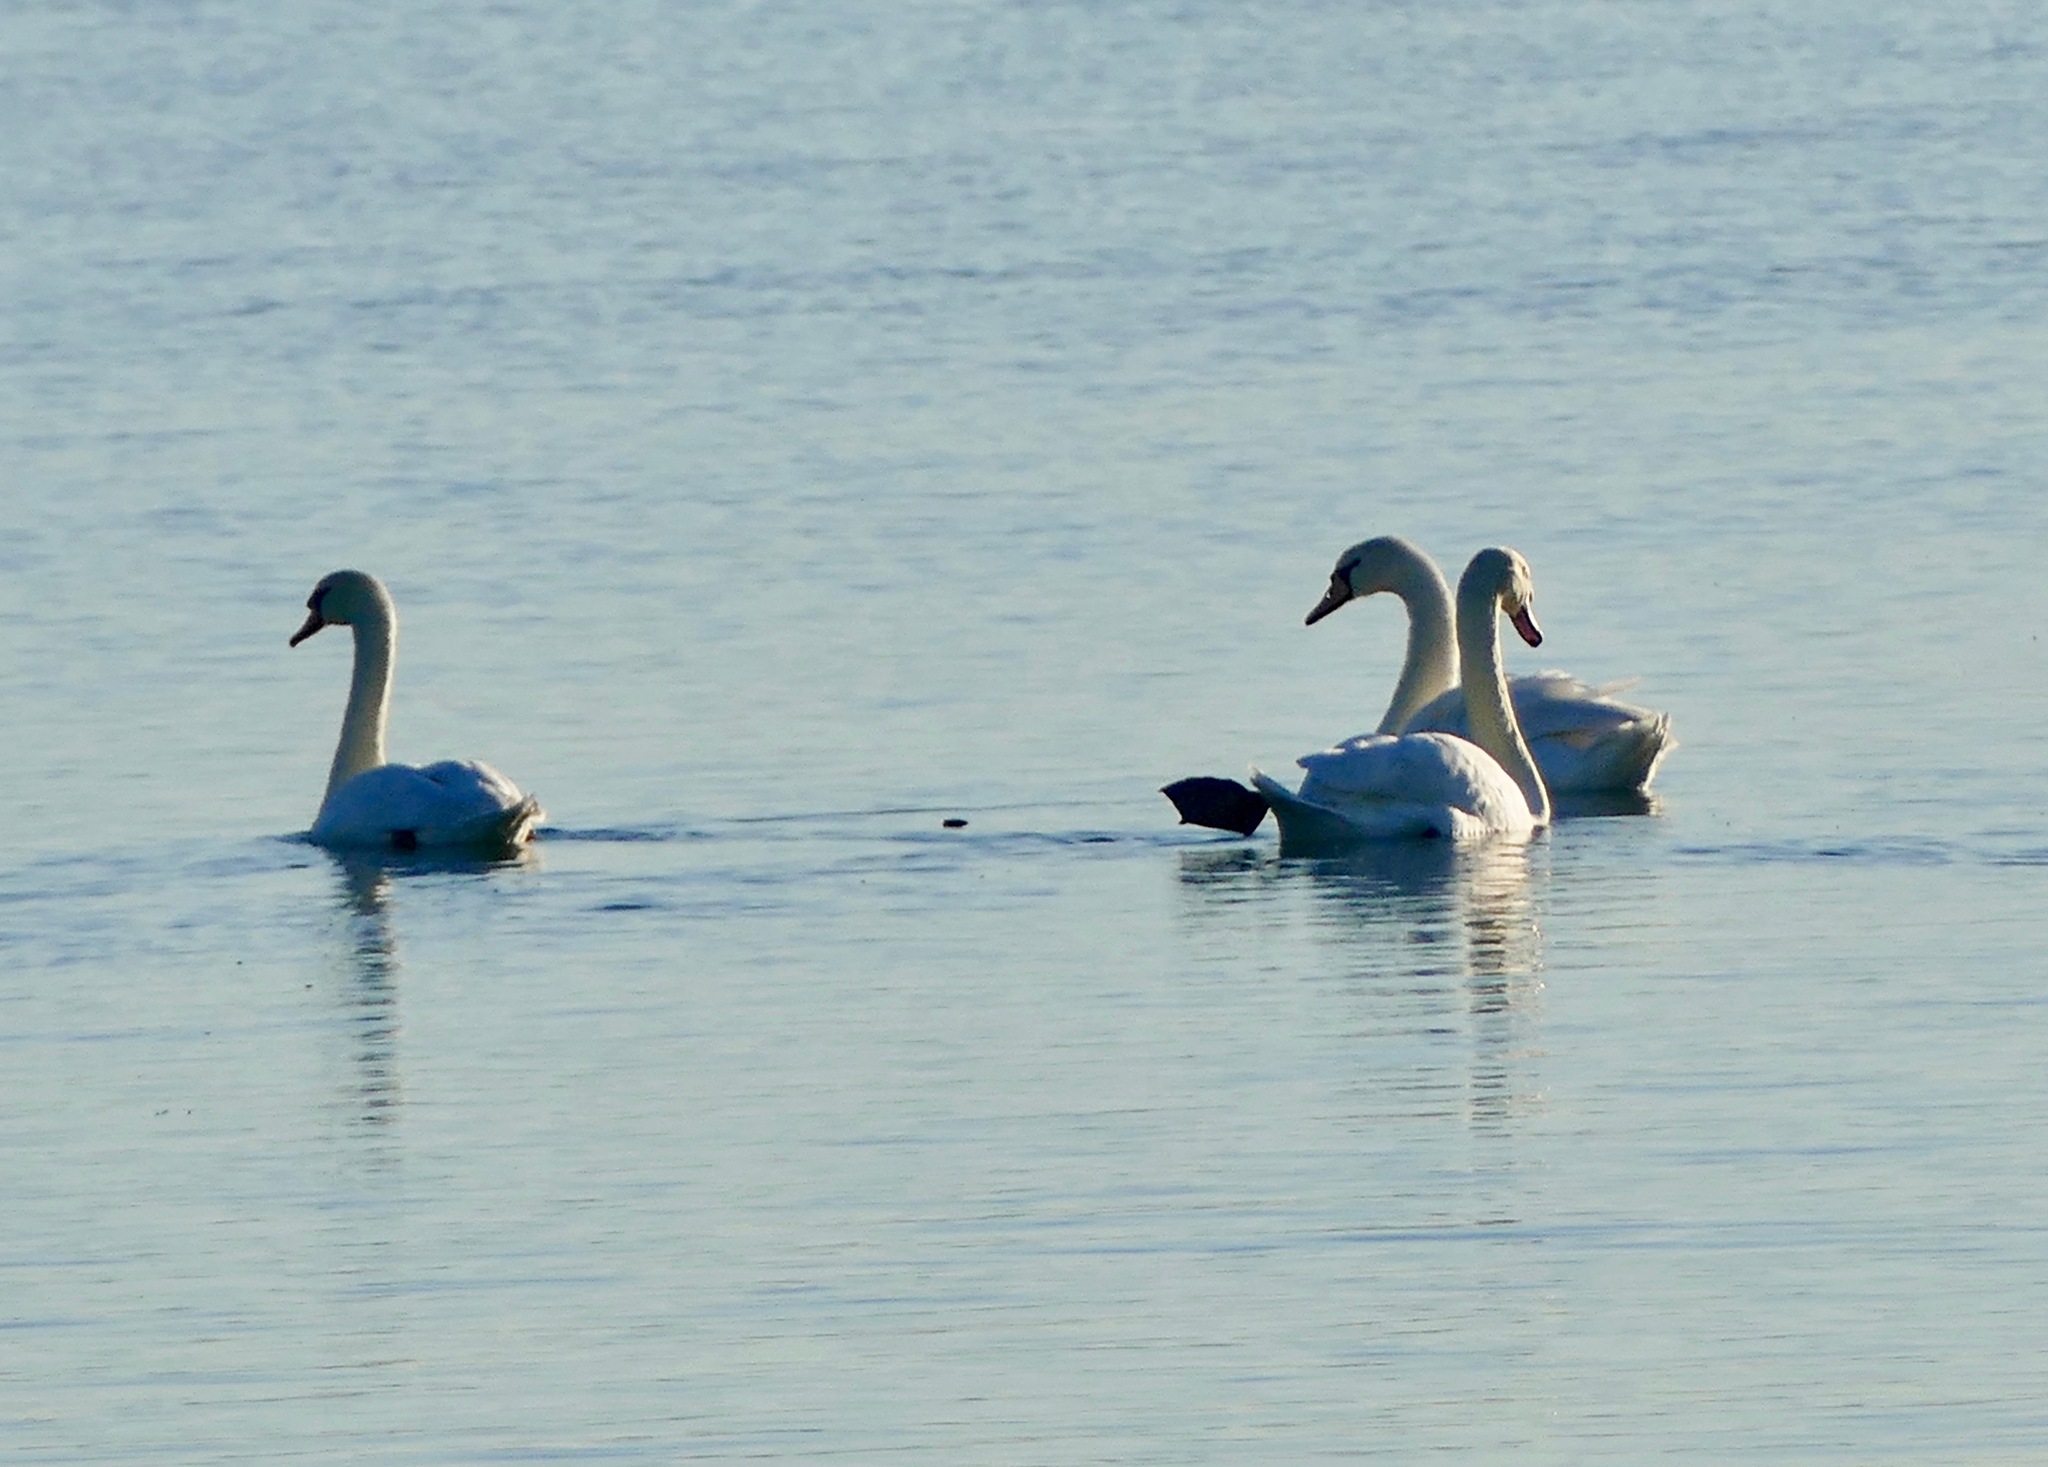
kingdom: Animalia
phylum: Chordata
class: Aves
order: Anseriformes
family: Anatidae
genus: Cygnus
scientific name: Cygnus olor
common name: Mute swan
